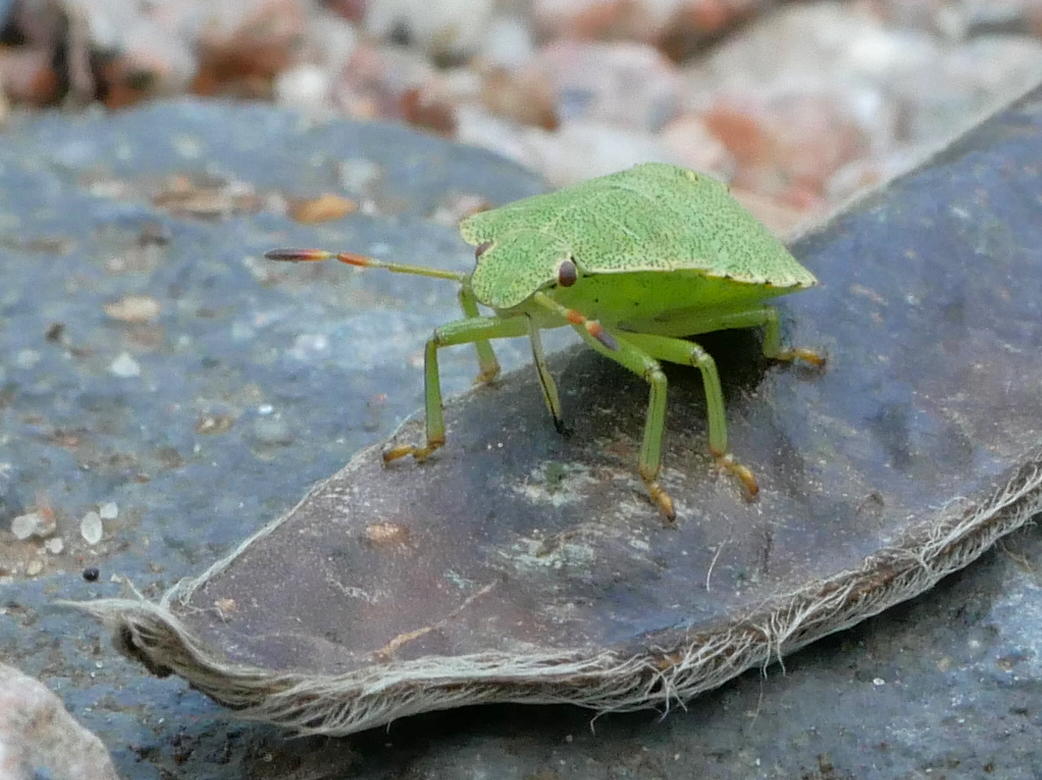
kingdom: Animalia
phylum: Arthropoda
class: Insecta
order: Hemiptera
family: Pentatomidae
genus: Palomena
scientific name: Palomena prasina
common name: Green shieldbug
